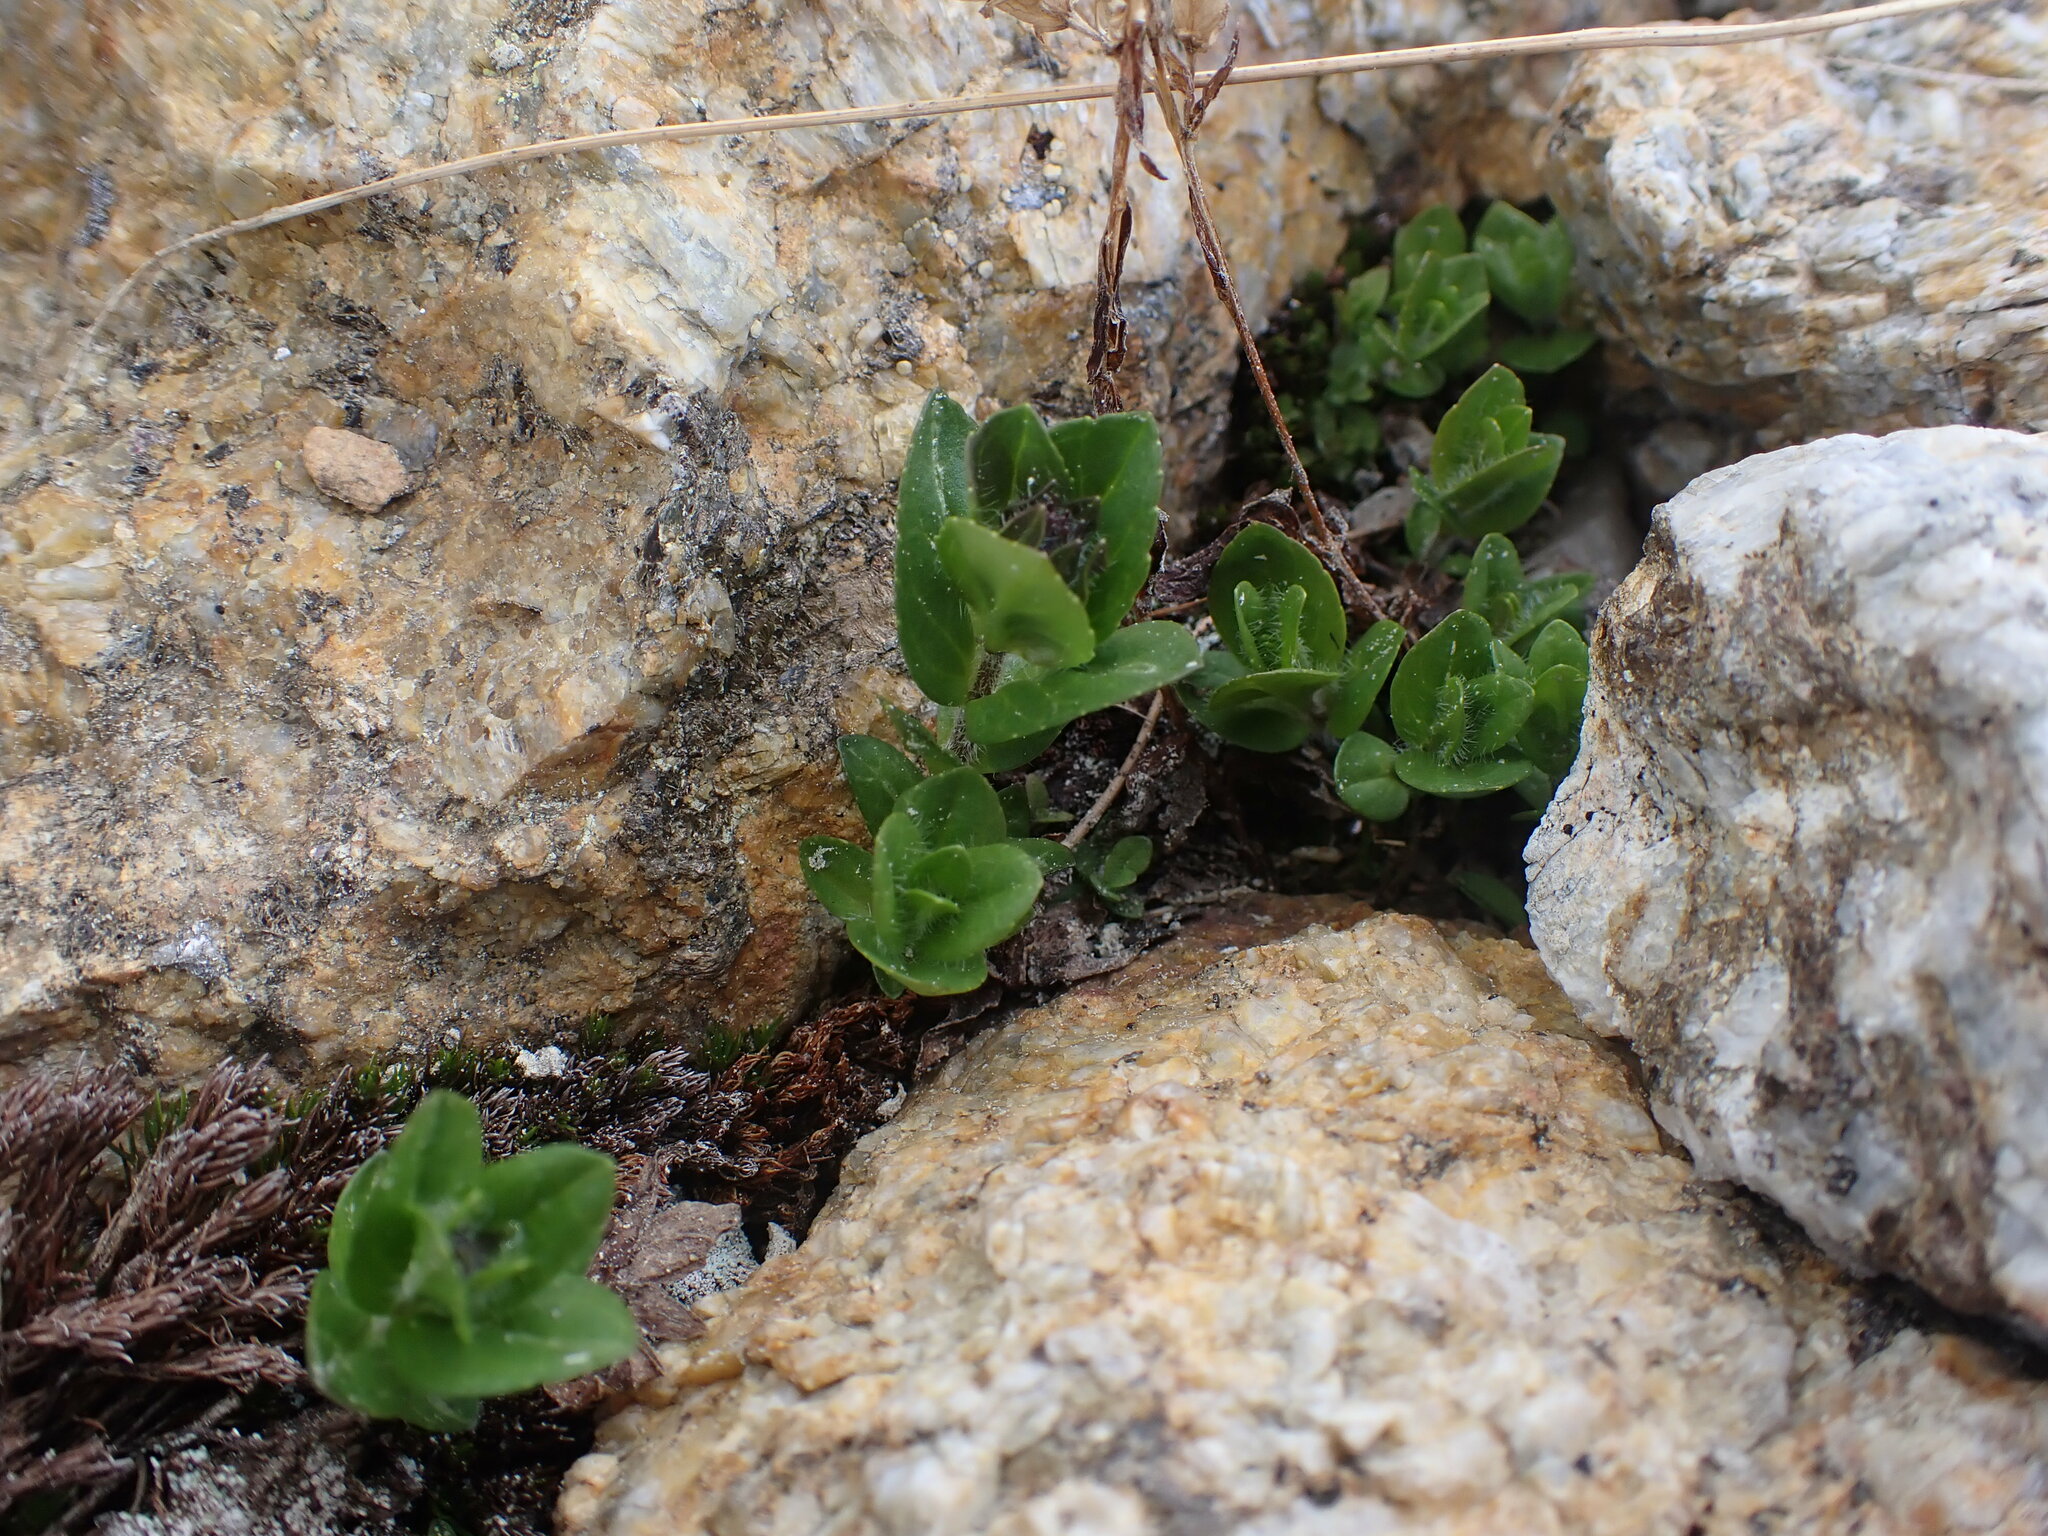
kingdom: Plantae
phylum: Tracheophyta
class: Magnoliopsida
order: Lamiales
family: Plantaginaceae
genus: Veronica
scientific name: Veronica wormskjoldii
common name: American alpine speedwell
